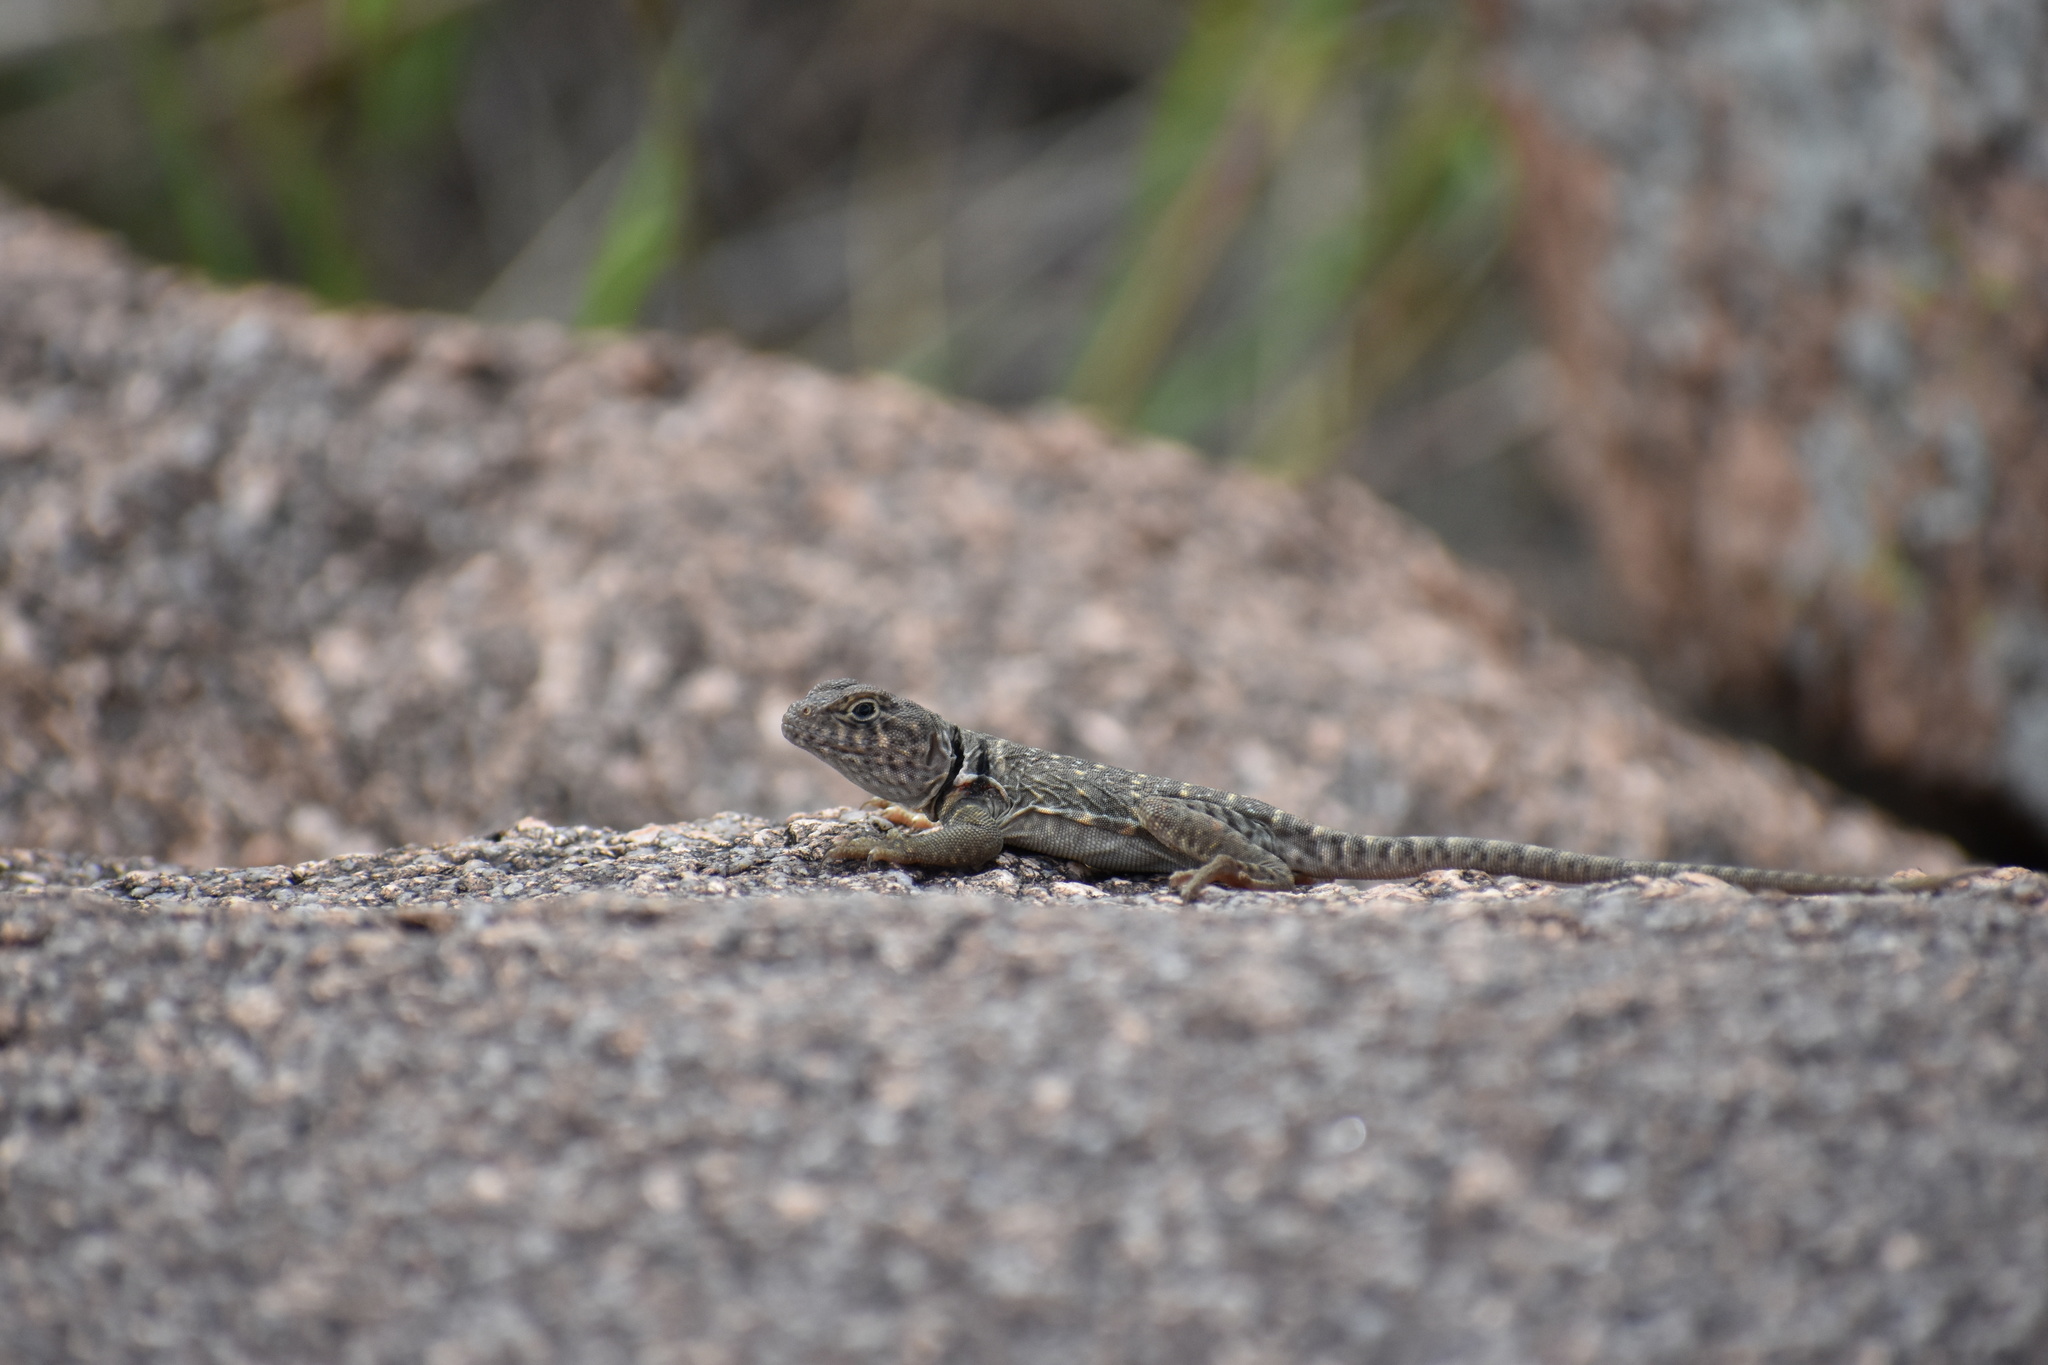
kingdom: Animalia
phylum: Chordata
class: Squamata
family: Crotaphytidae
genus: Crotaphytus
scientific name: Crotaphytus collaris
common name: Collared lizard
